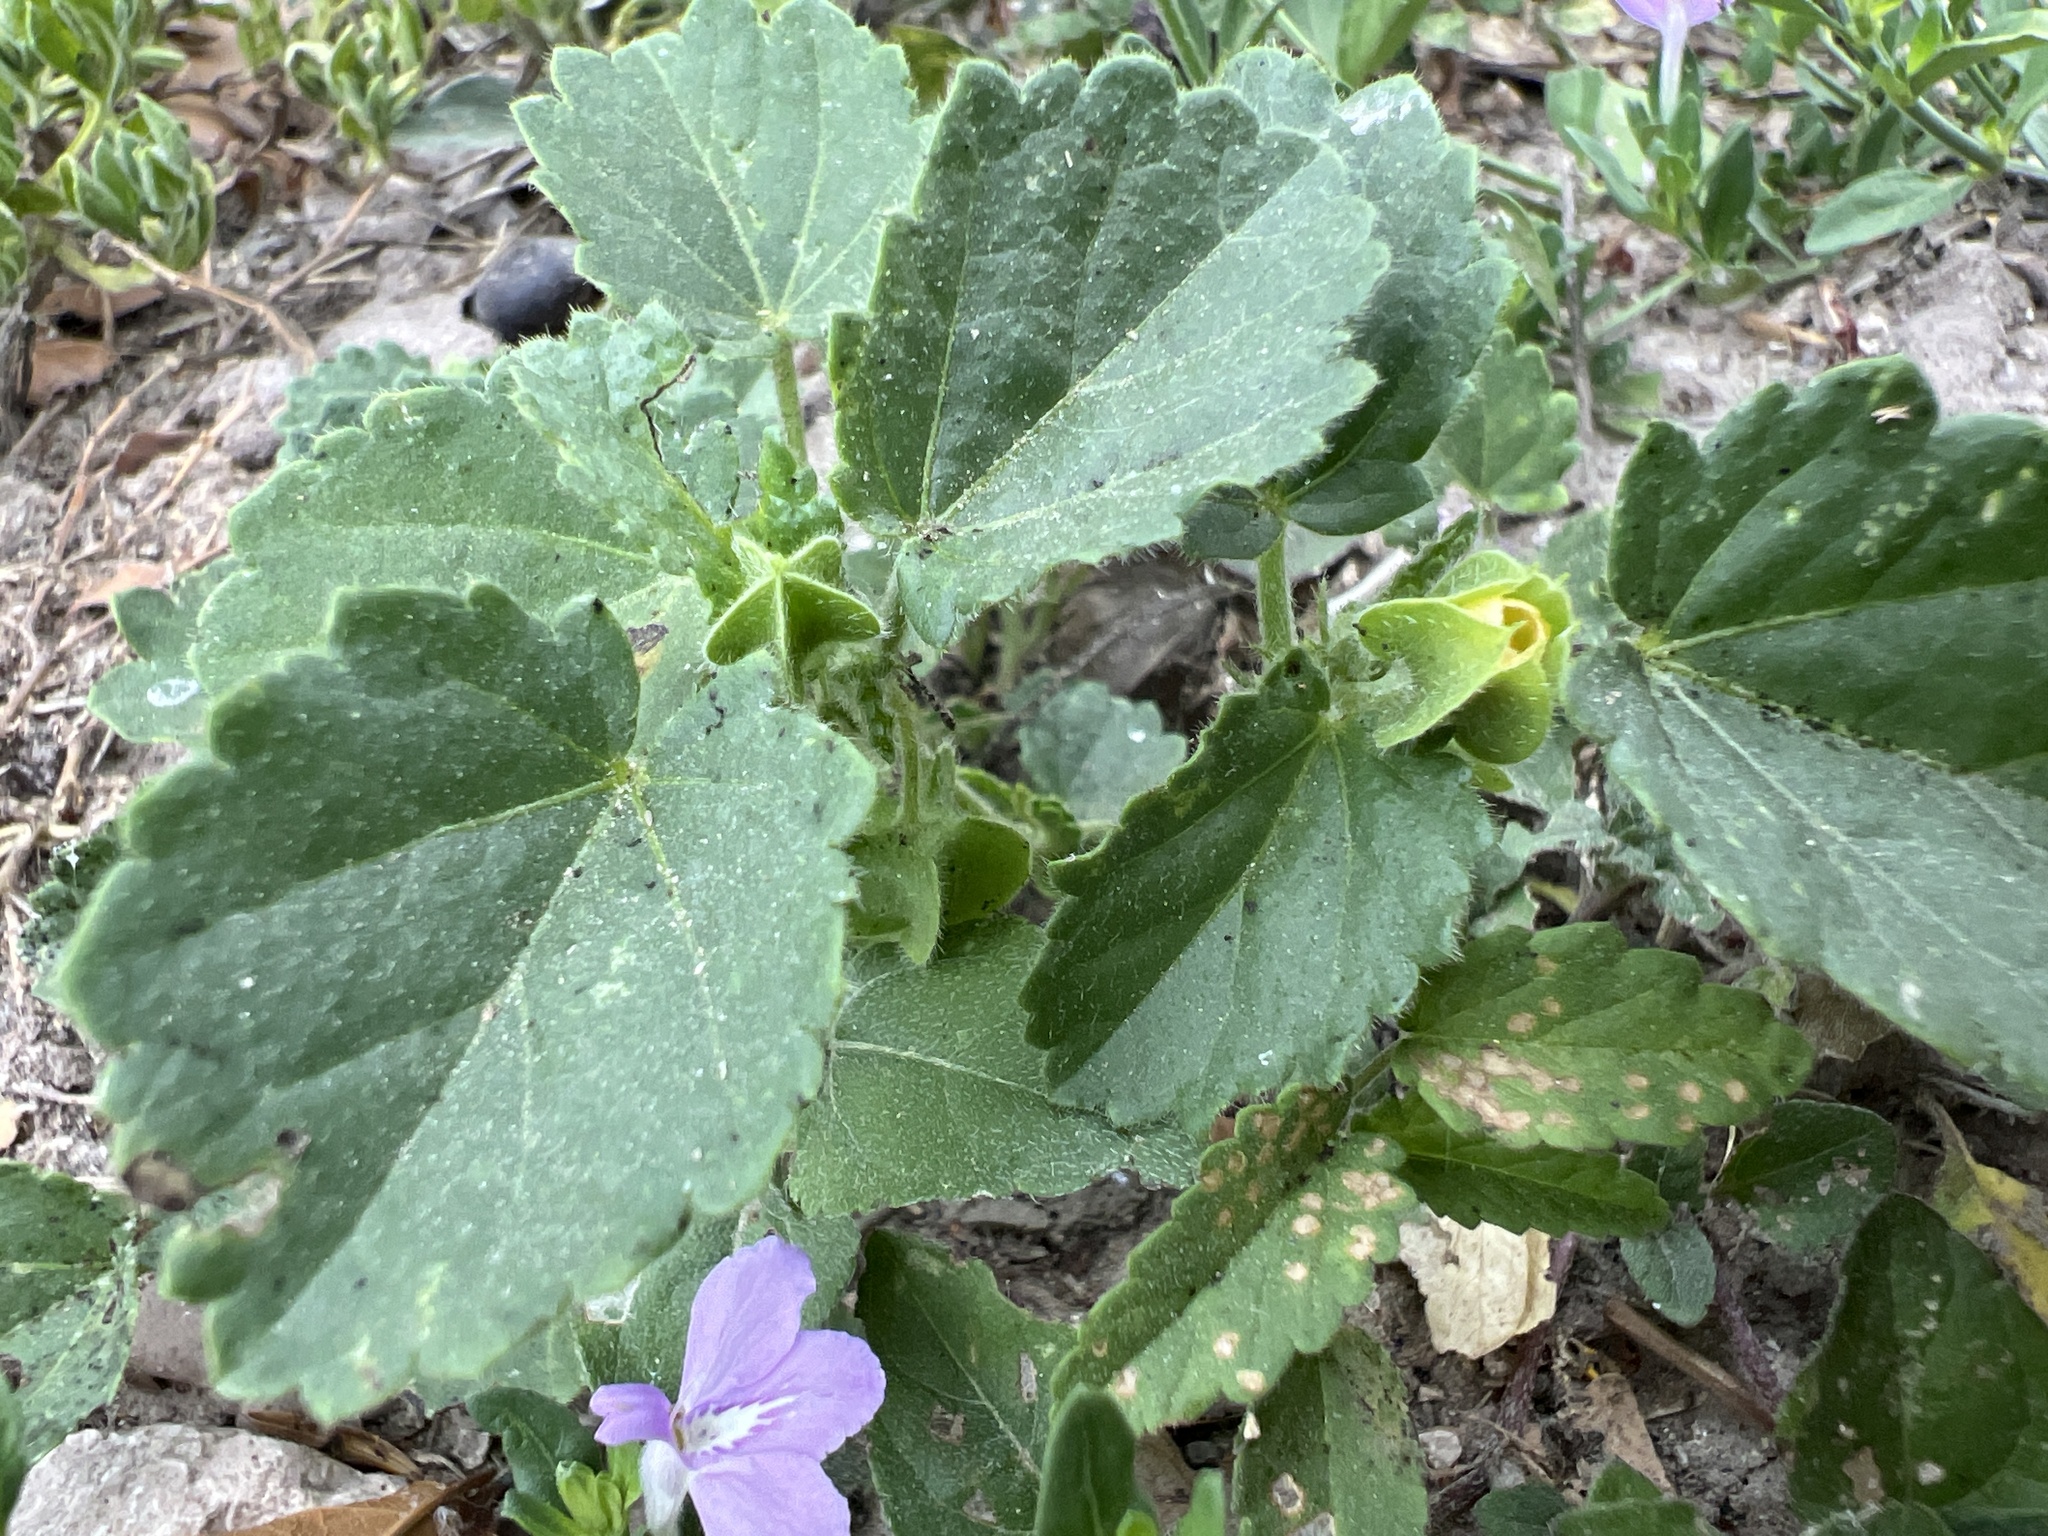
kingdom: Plantae
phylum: Tracheophyta
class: Magnoliopsida
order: Malvales
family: Malvaceae
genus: Rhynchosida
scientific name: Rhynchosida physocalyx
